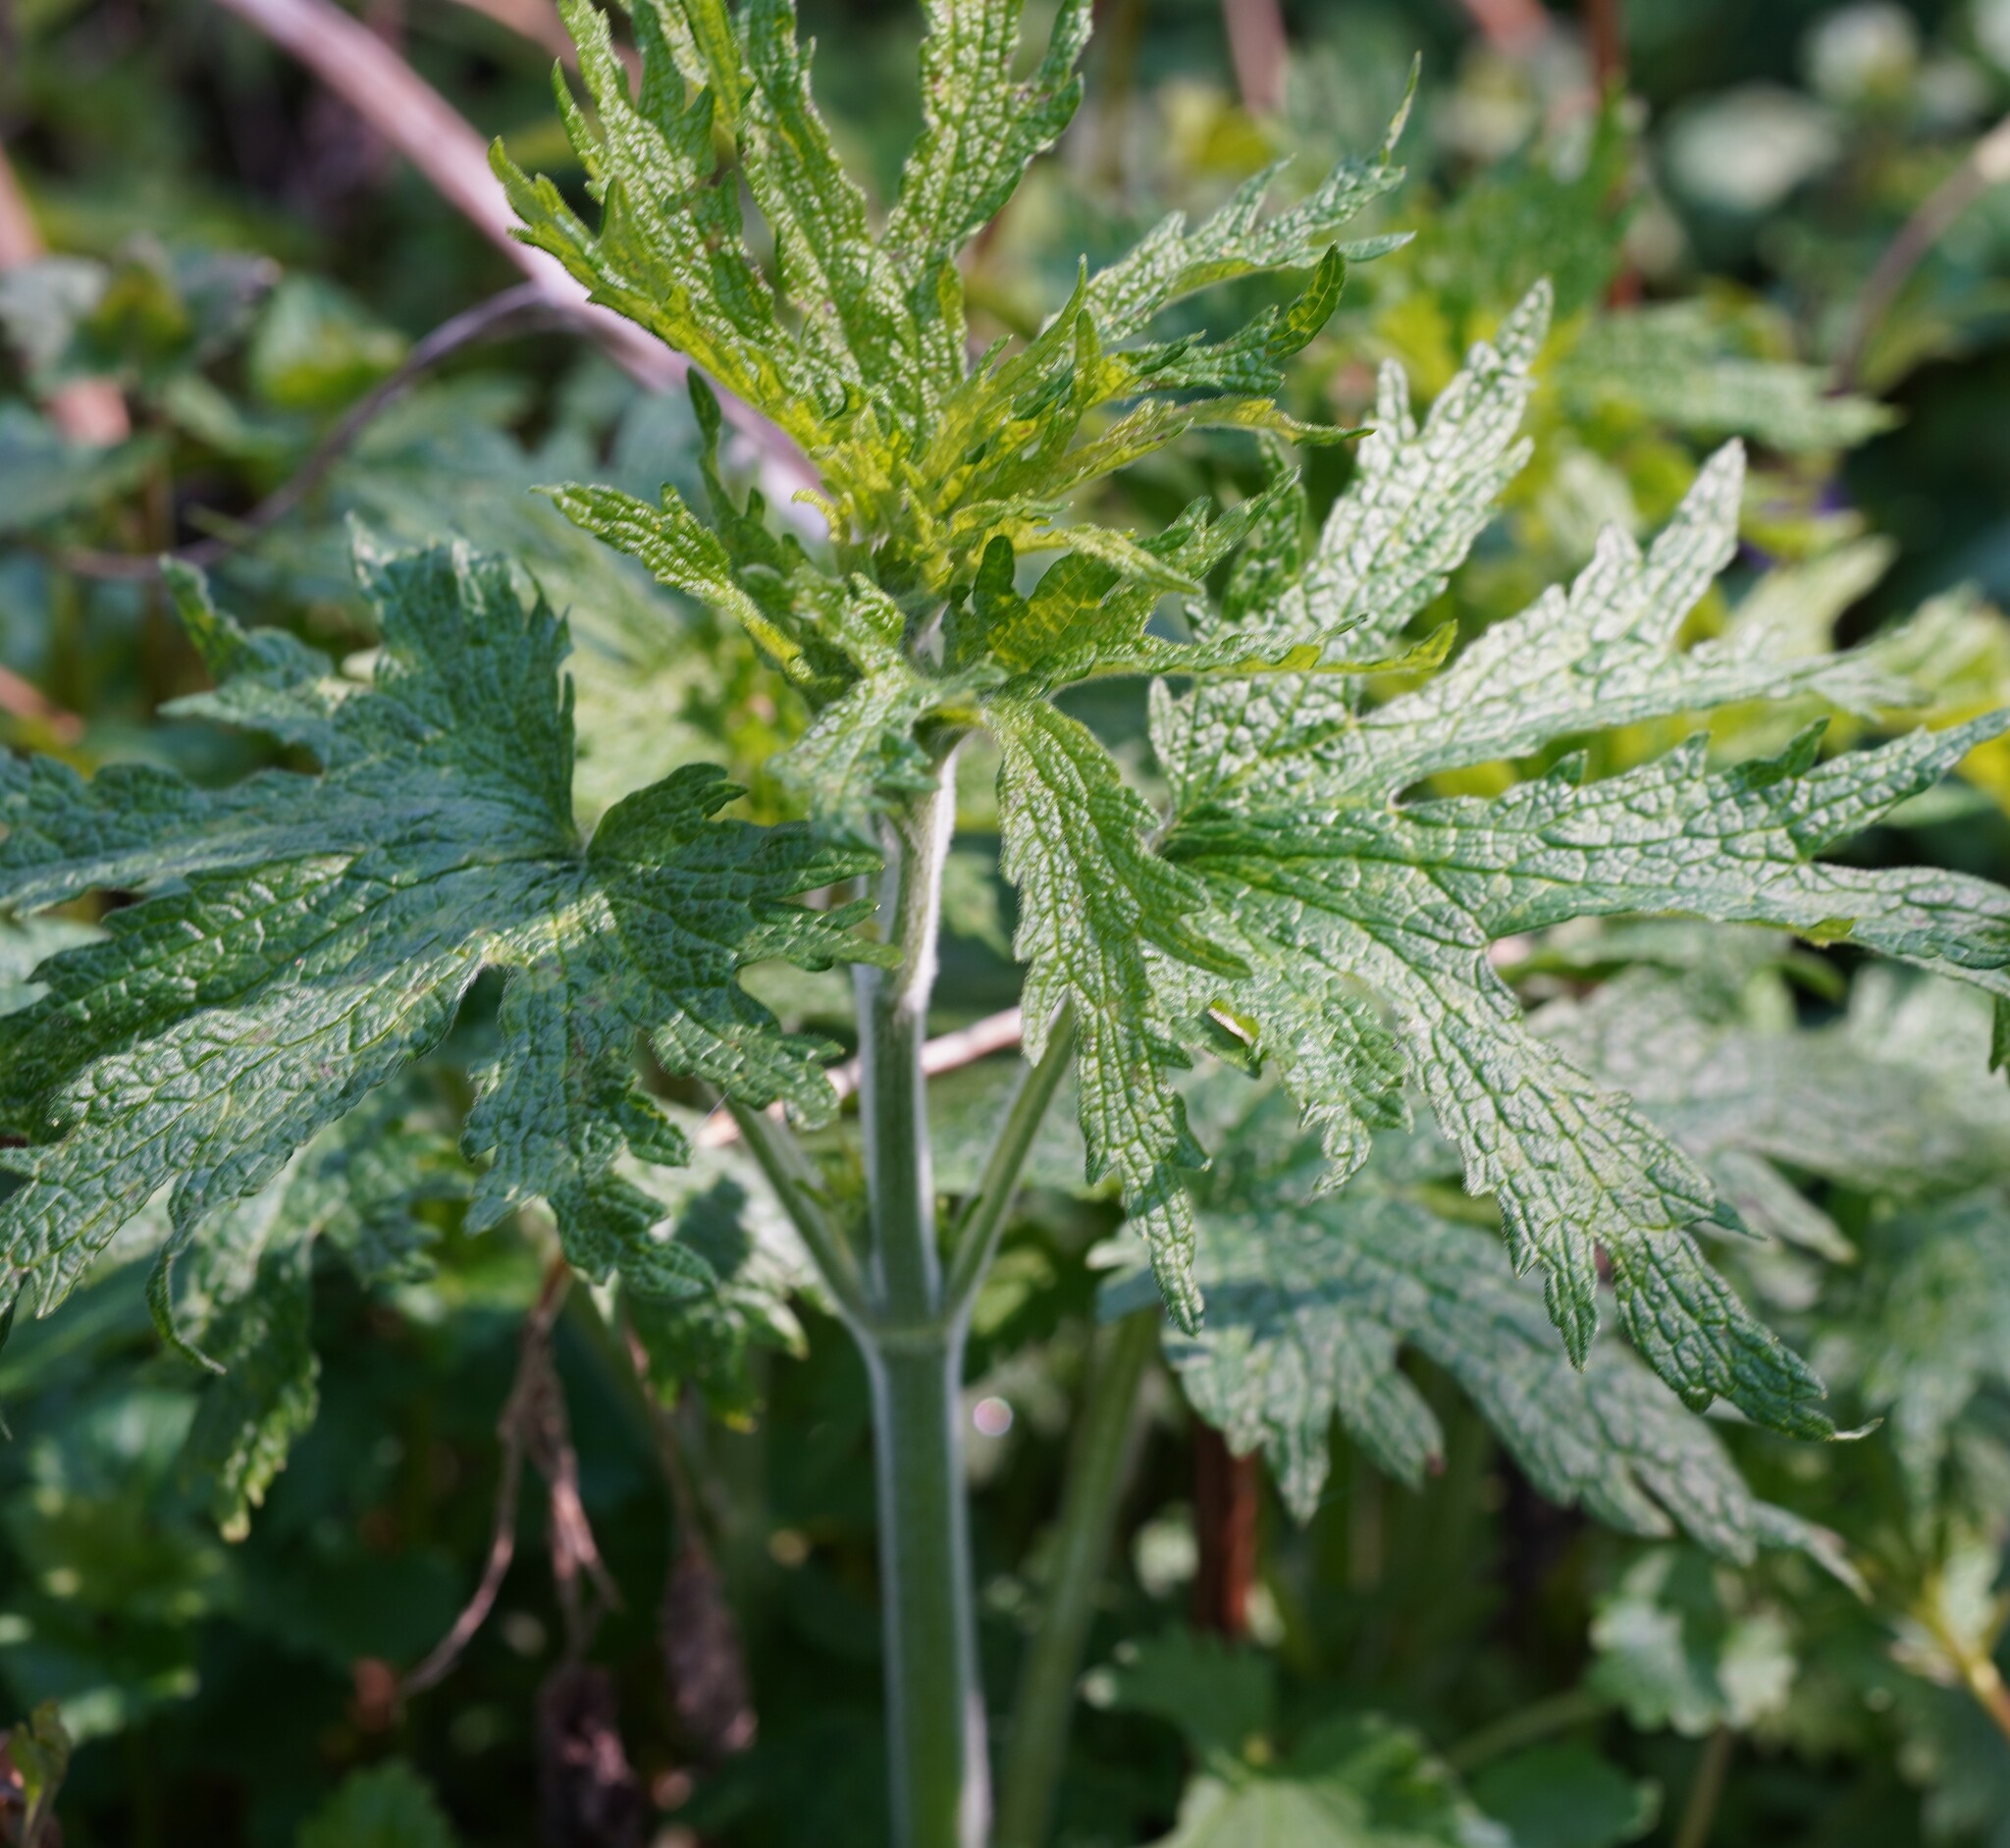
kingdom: Plantae
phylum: Tracheophyta
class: Magnoliopsida
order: Lamiales
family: Lamiaceae
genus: Leonurus
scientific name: Leonurus quinquelobatus
